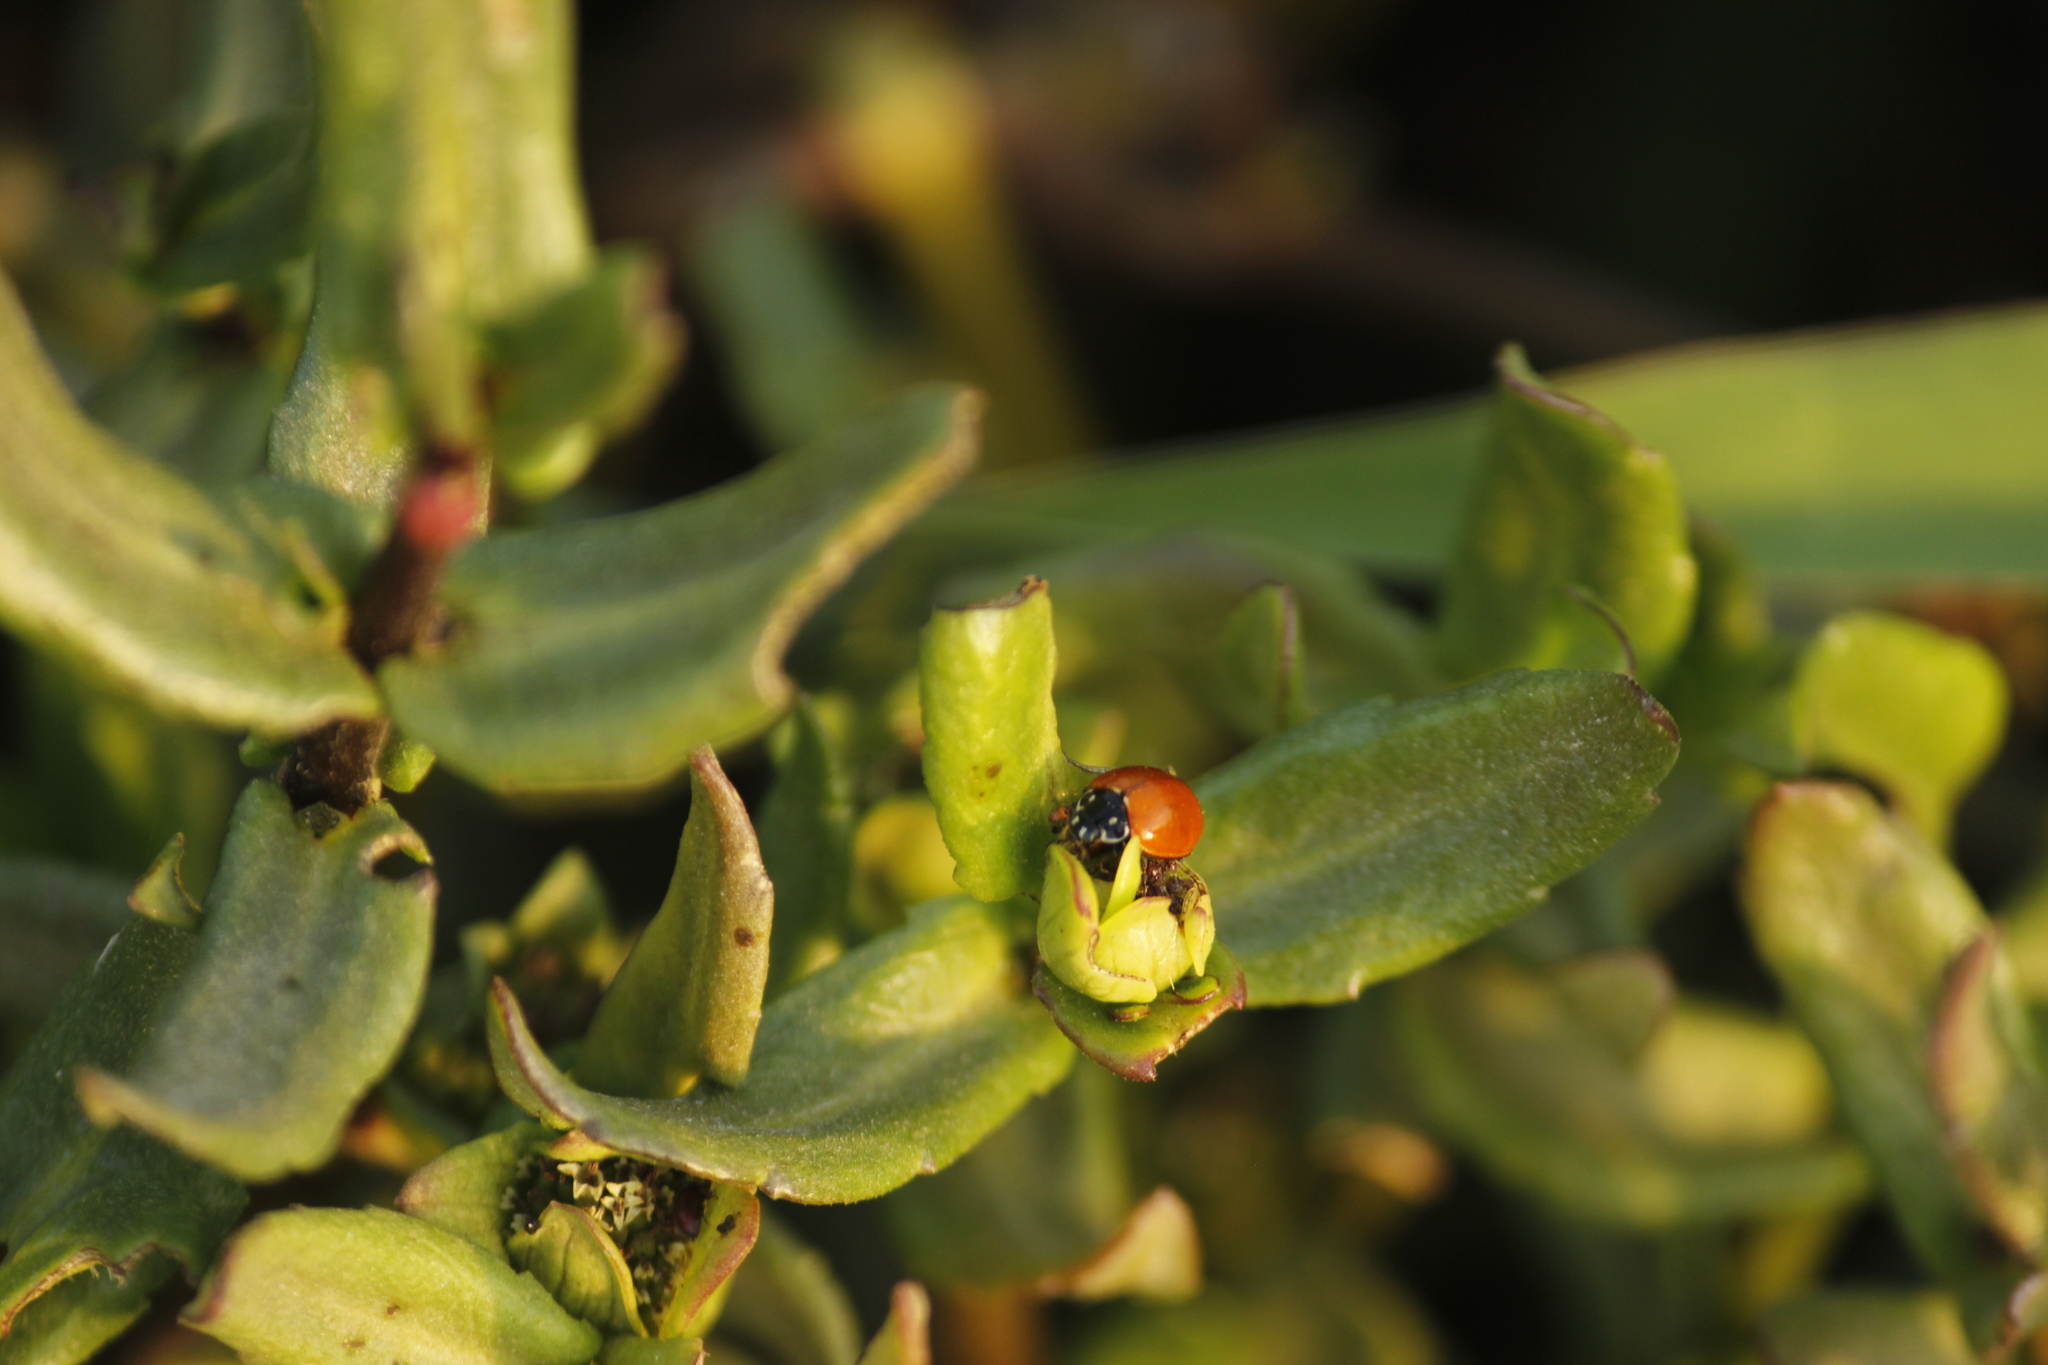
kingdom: Animalia
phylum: Arthropoda
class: Insecta
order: Coleoptera
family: Coccinellidae
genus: Cycloneda
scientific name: Cycloneda sanguinea
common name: Ladybird beetle
